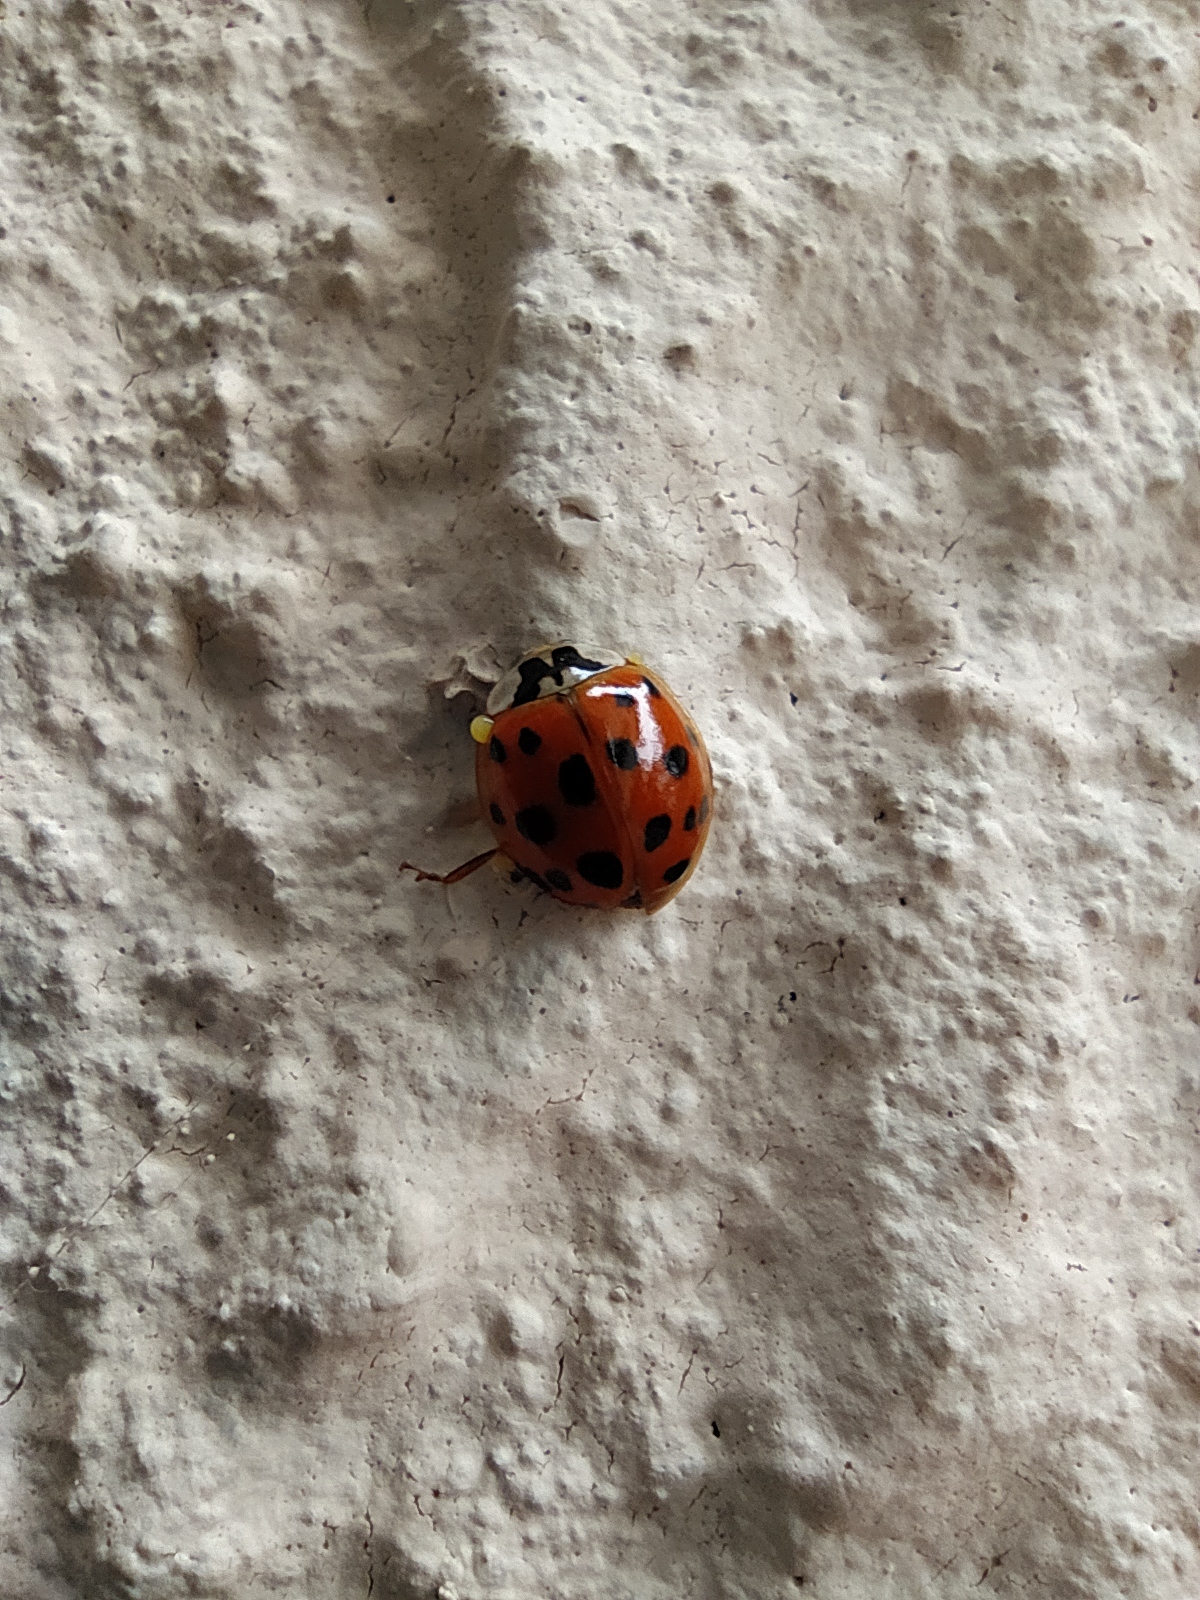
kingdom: Animalia
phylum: Arthropoda
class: Insecta
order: Coleoptera
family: Coccinellidae
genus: Harmonia
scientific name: Harmonia axyridis
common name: Harlequin ladybird
